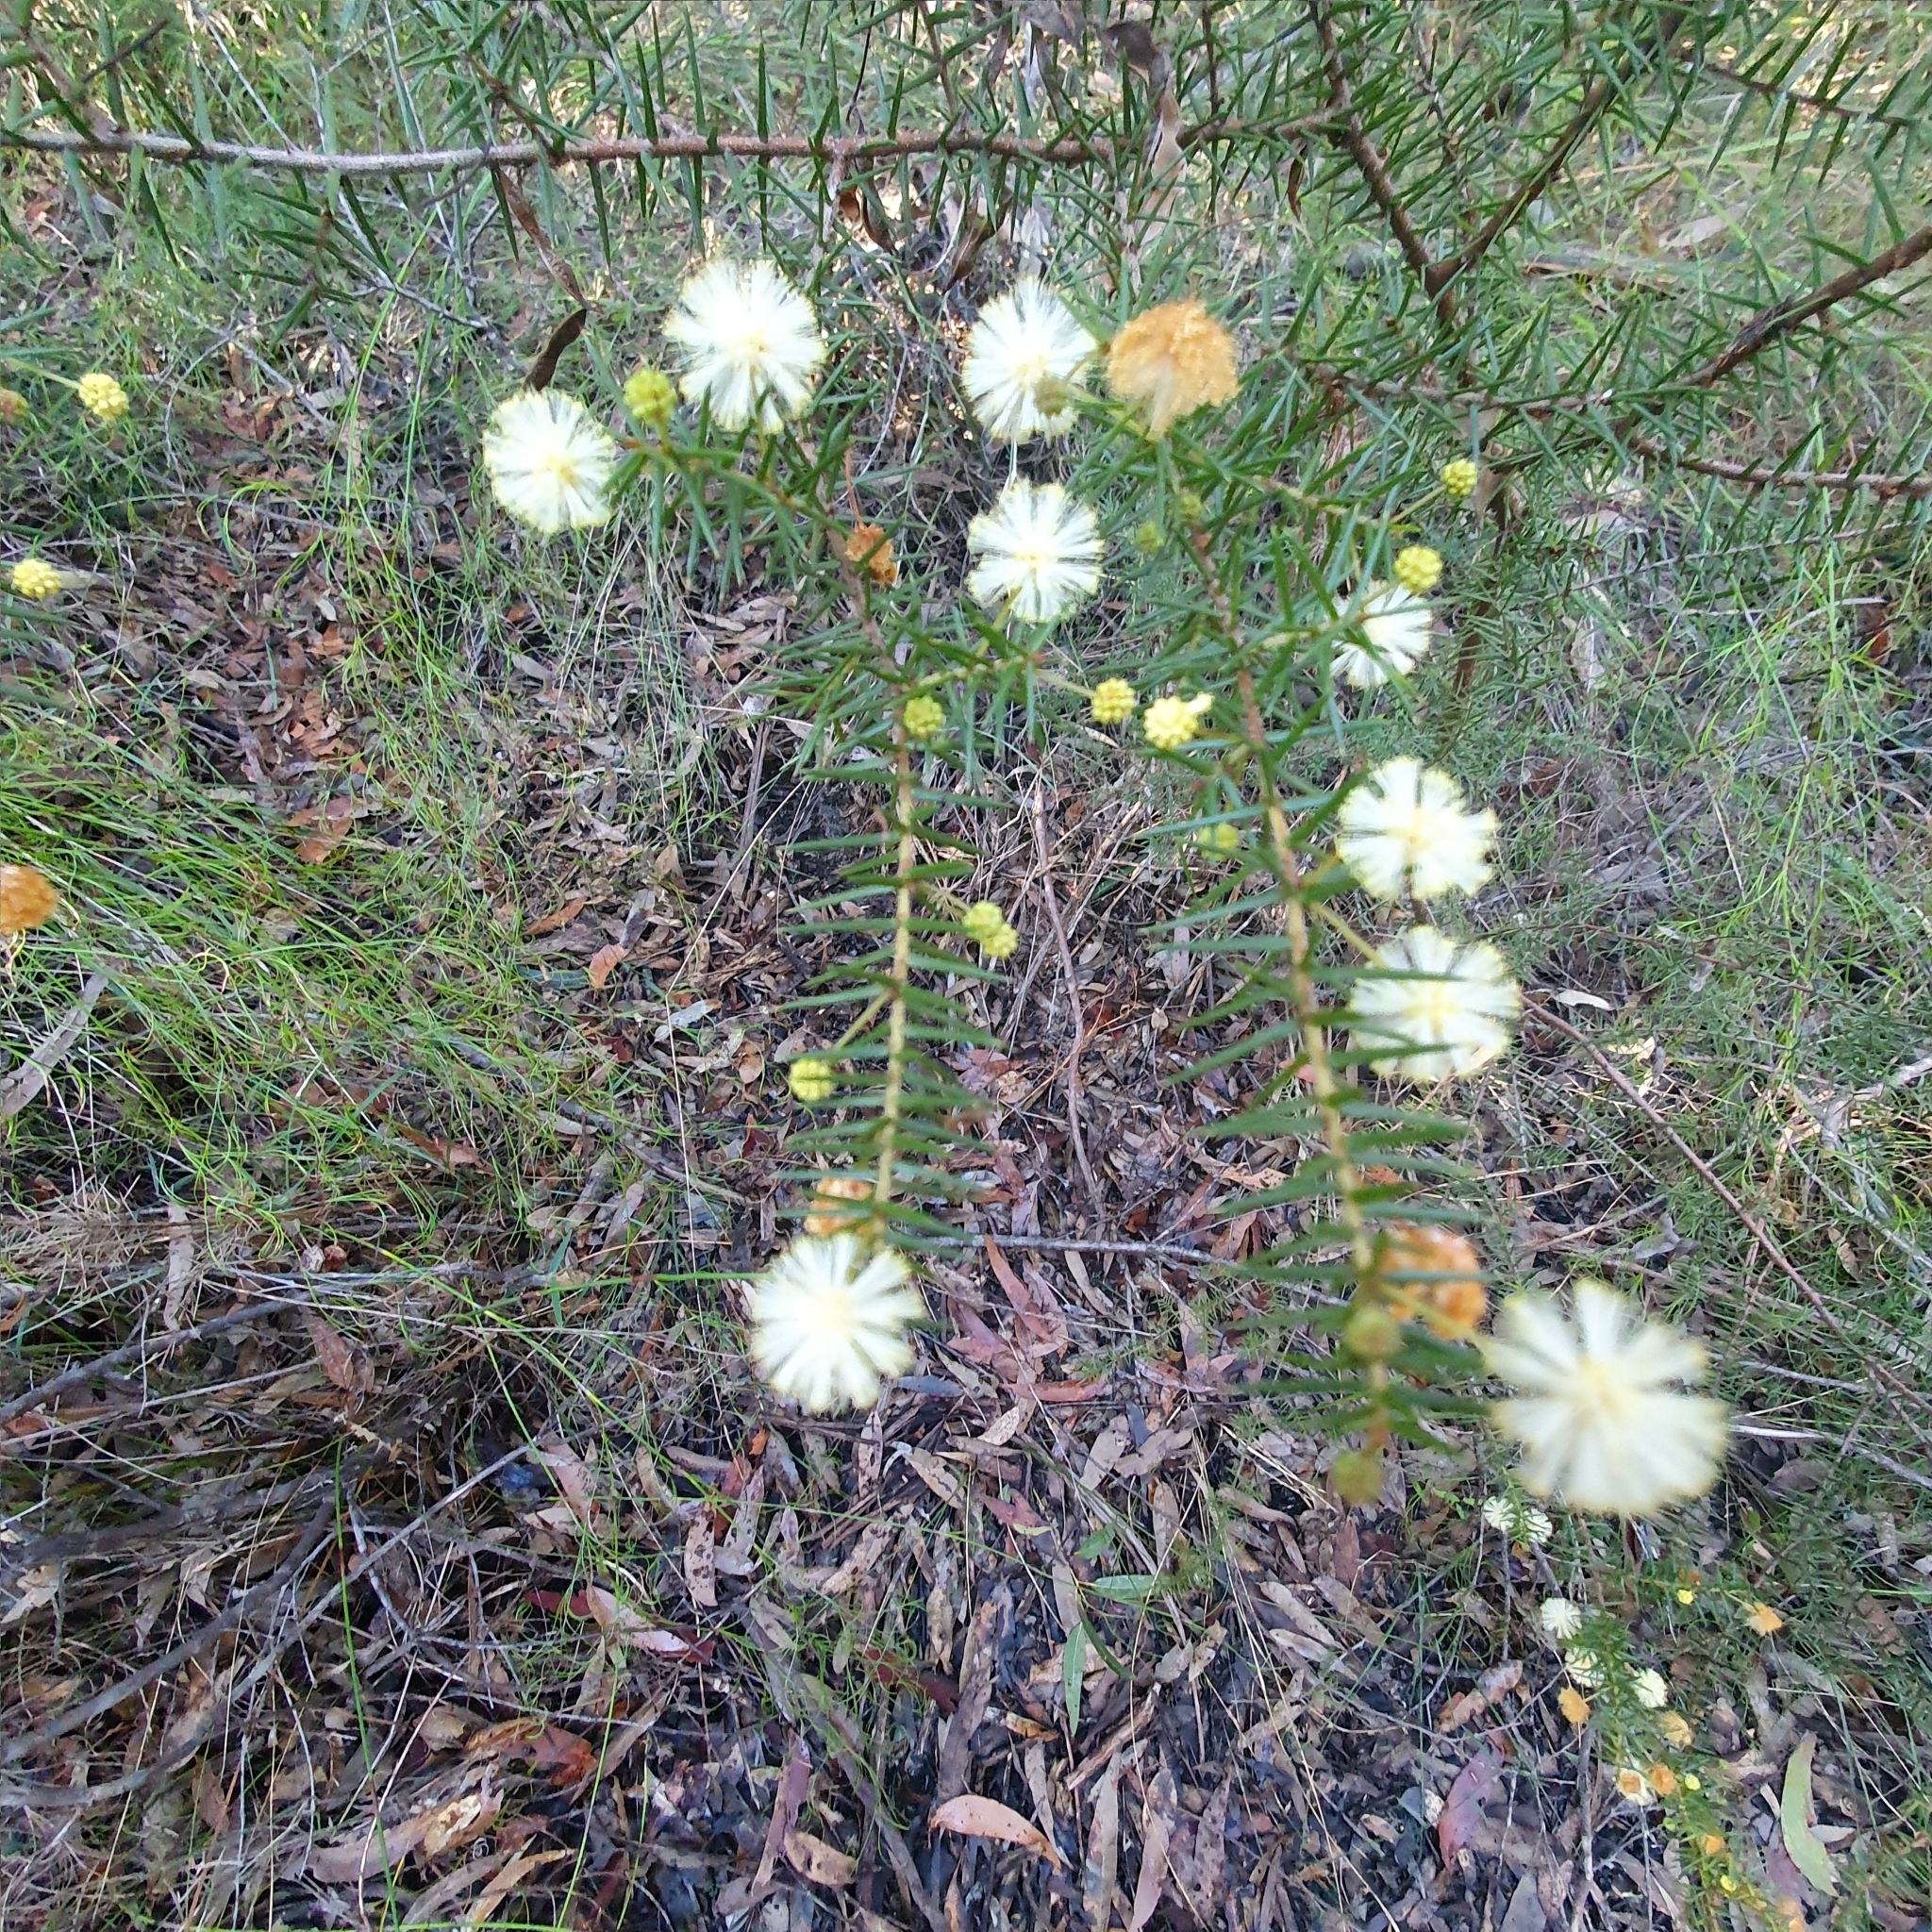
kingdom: Plantae
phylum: Tracheophyta
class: Magnoliopsida
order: Fabales
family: Fabaceae
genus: Acacia
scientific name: Acacia ulicifolia
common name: Juniper wattle
